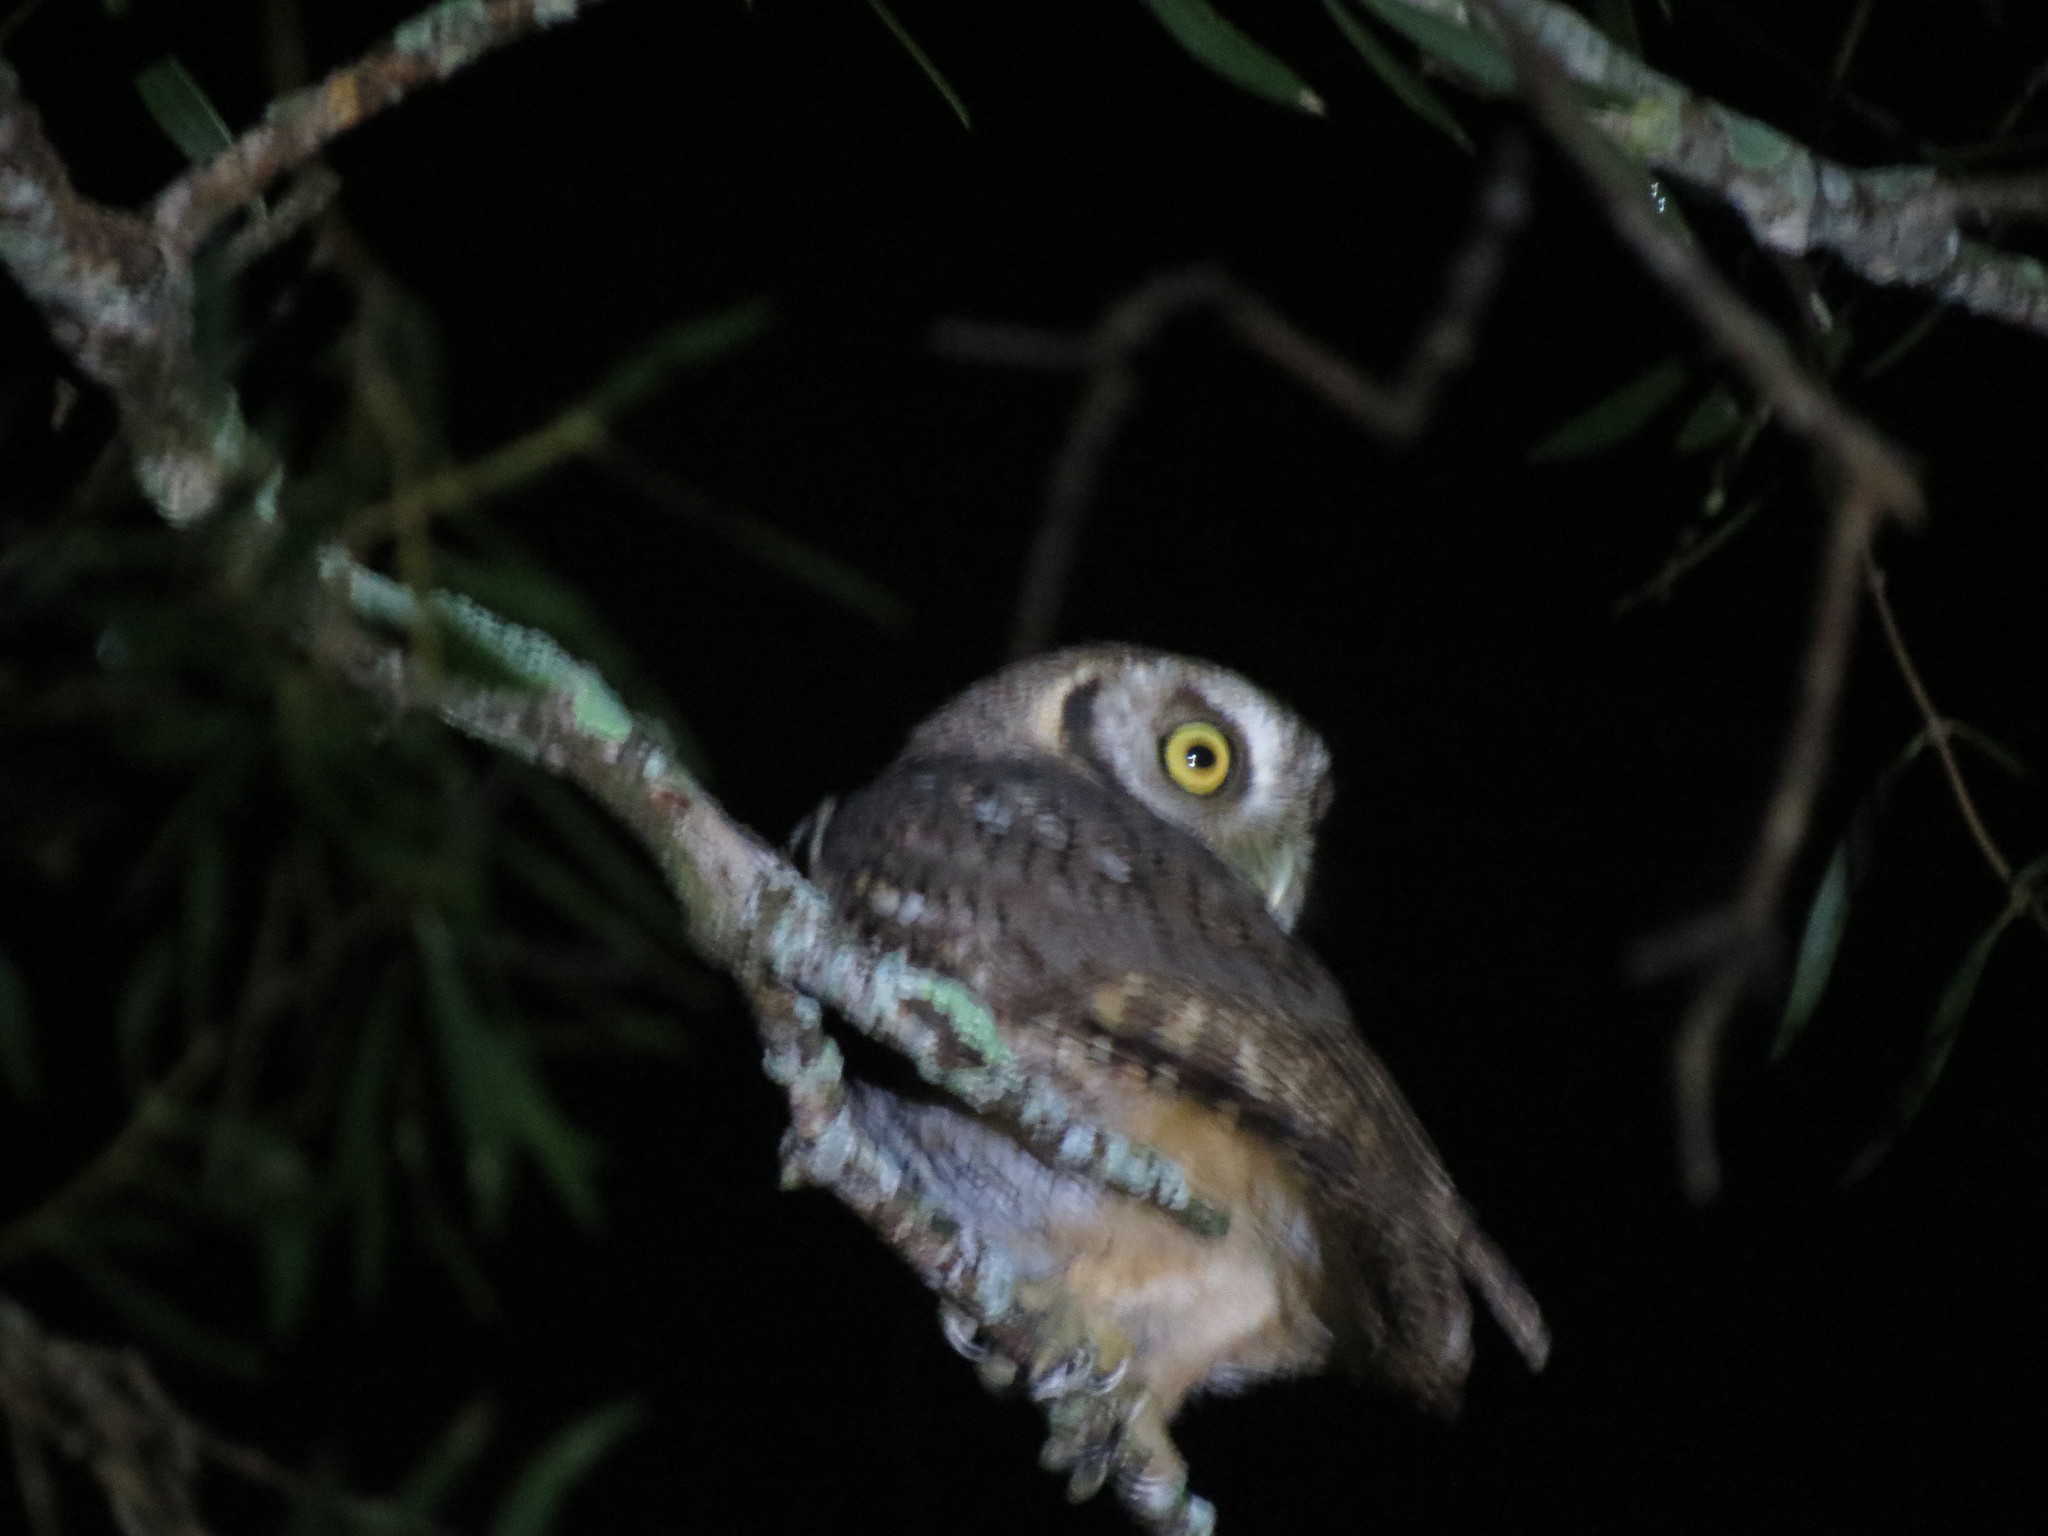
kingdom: Animalia
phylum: Chordata
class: Aves
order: Strigiformes
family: Strigidae
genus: Megascops
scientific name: Megascops choliba
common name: Tropical screech-owl
